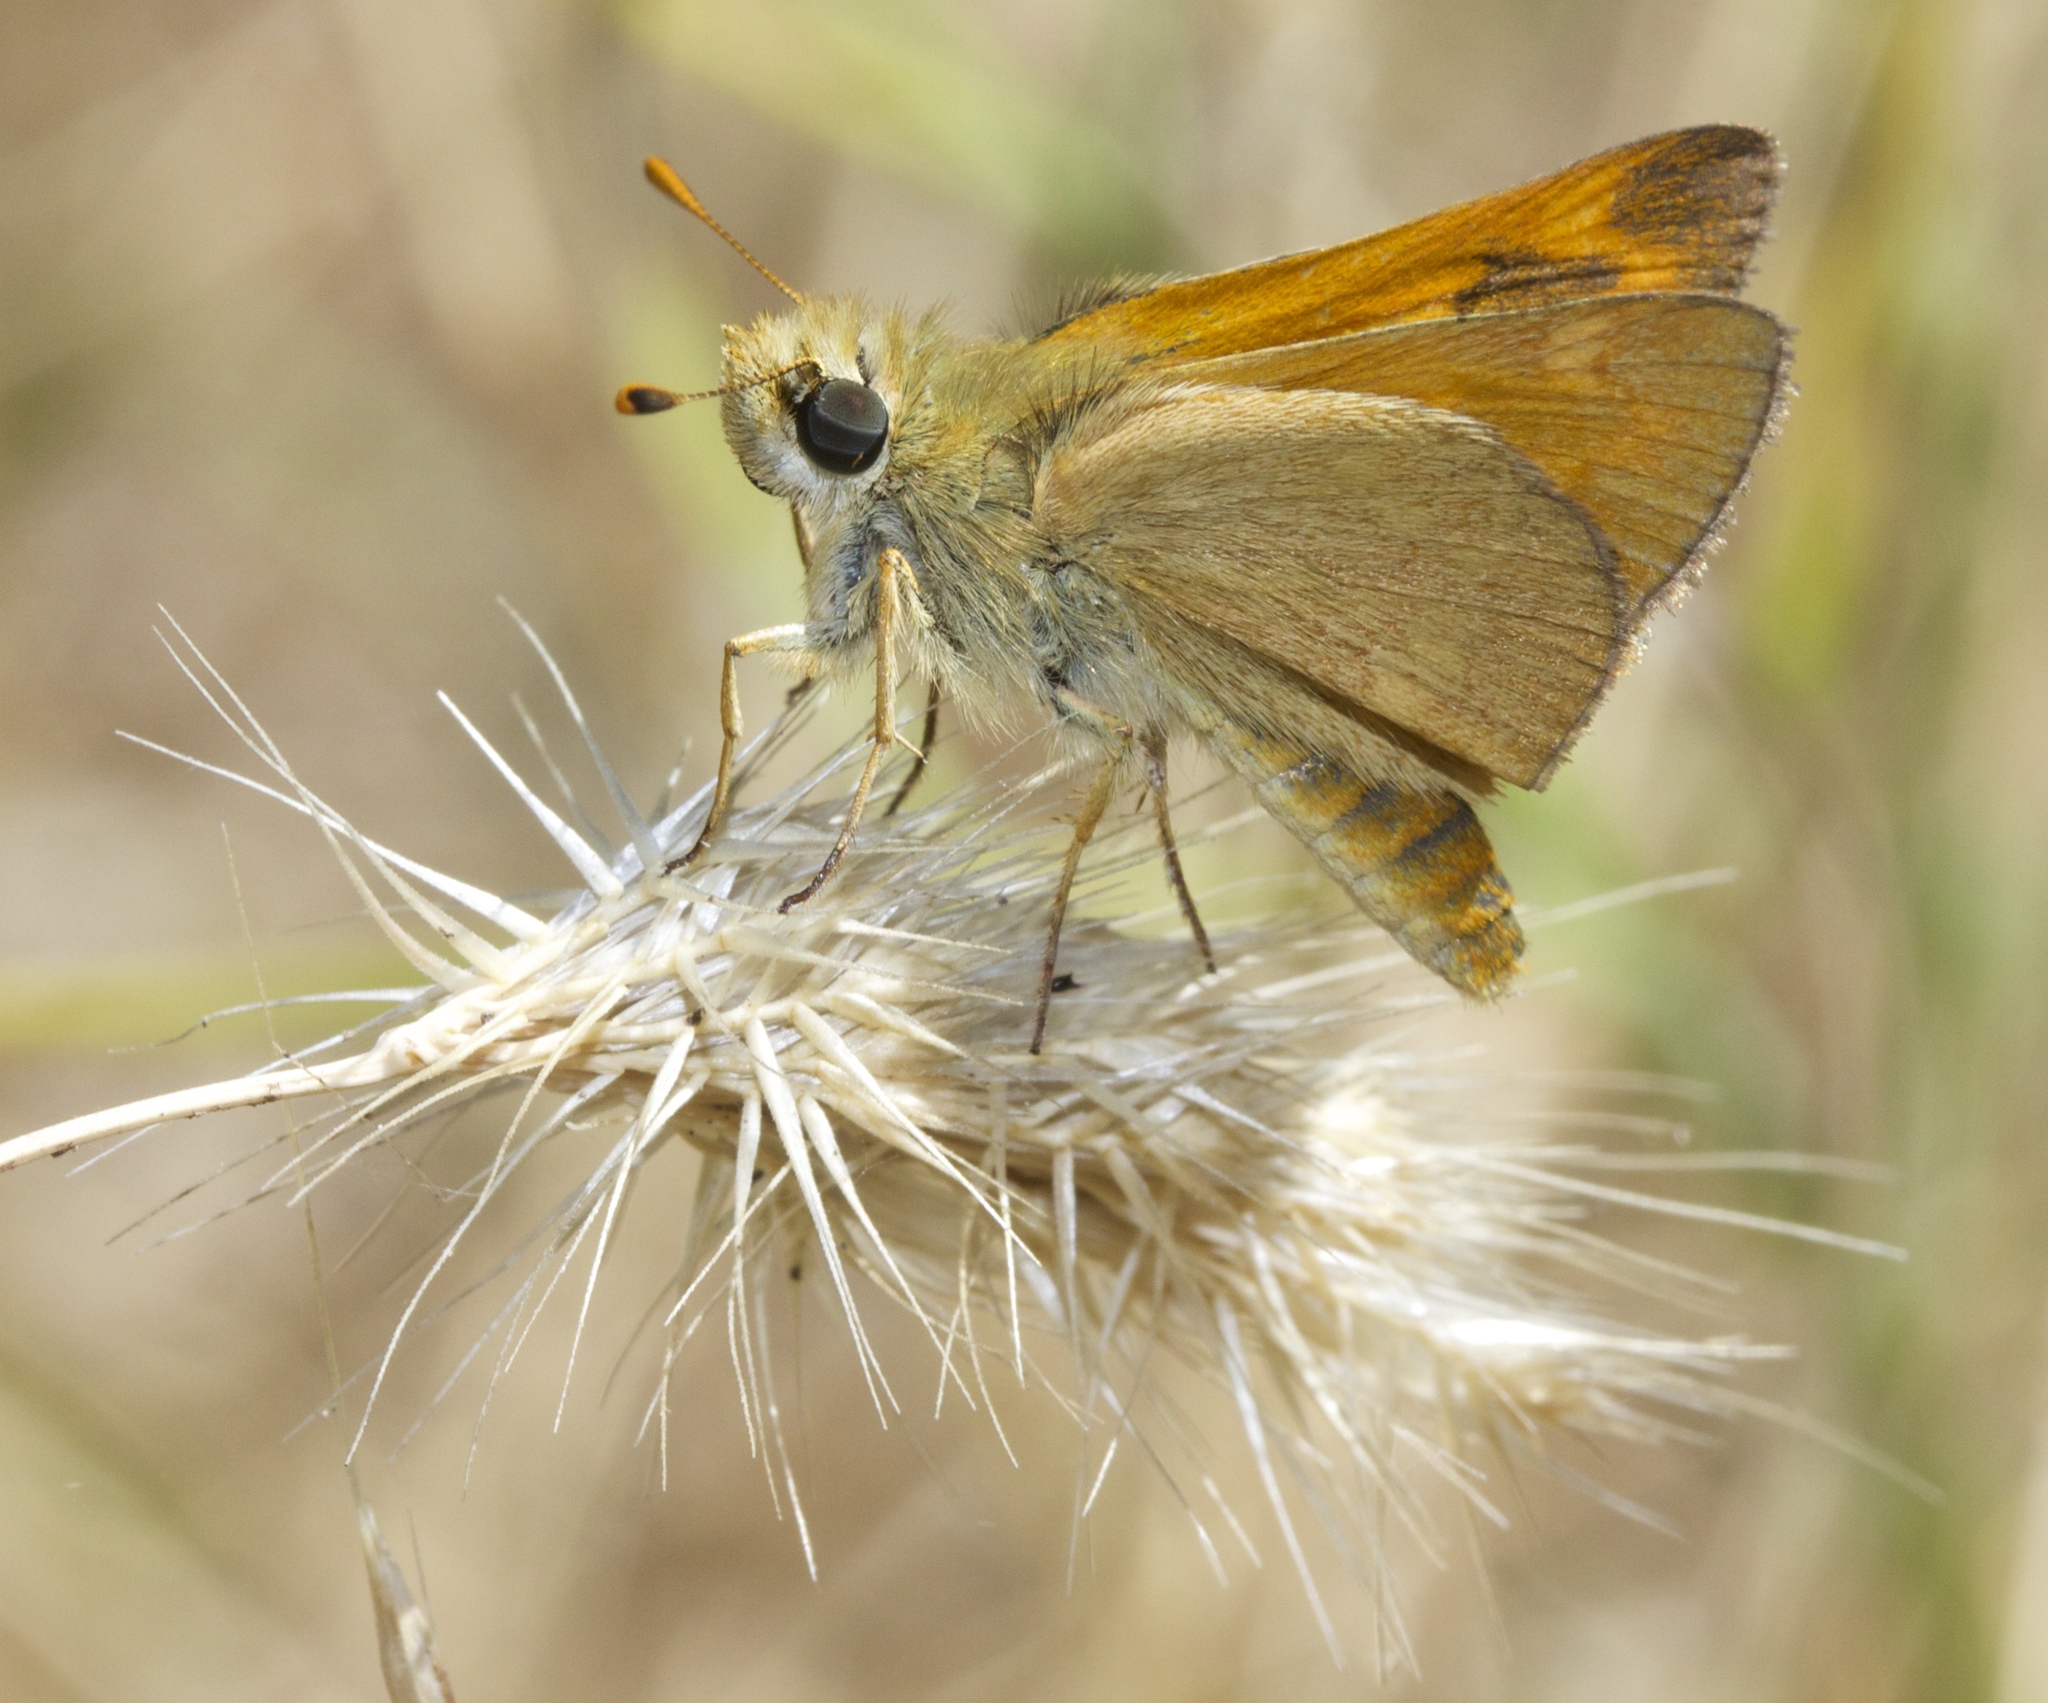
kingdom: Animalia
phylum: Arthropoda
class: Insecta
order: Lepidoptera
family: Hesperiidae
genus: Ochlodes
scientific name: Ochlodes sylvanoides
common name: Woodland skipper
